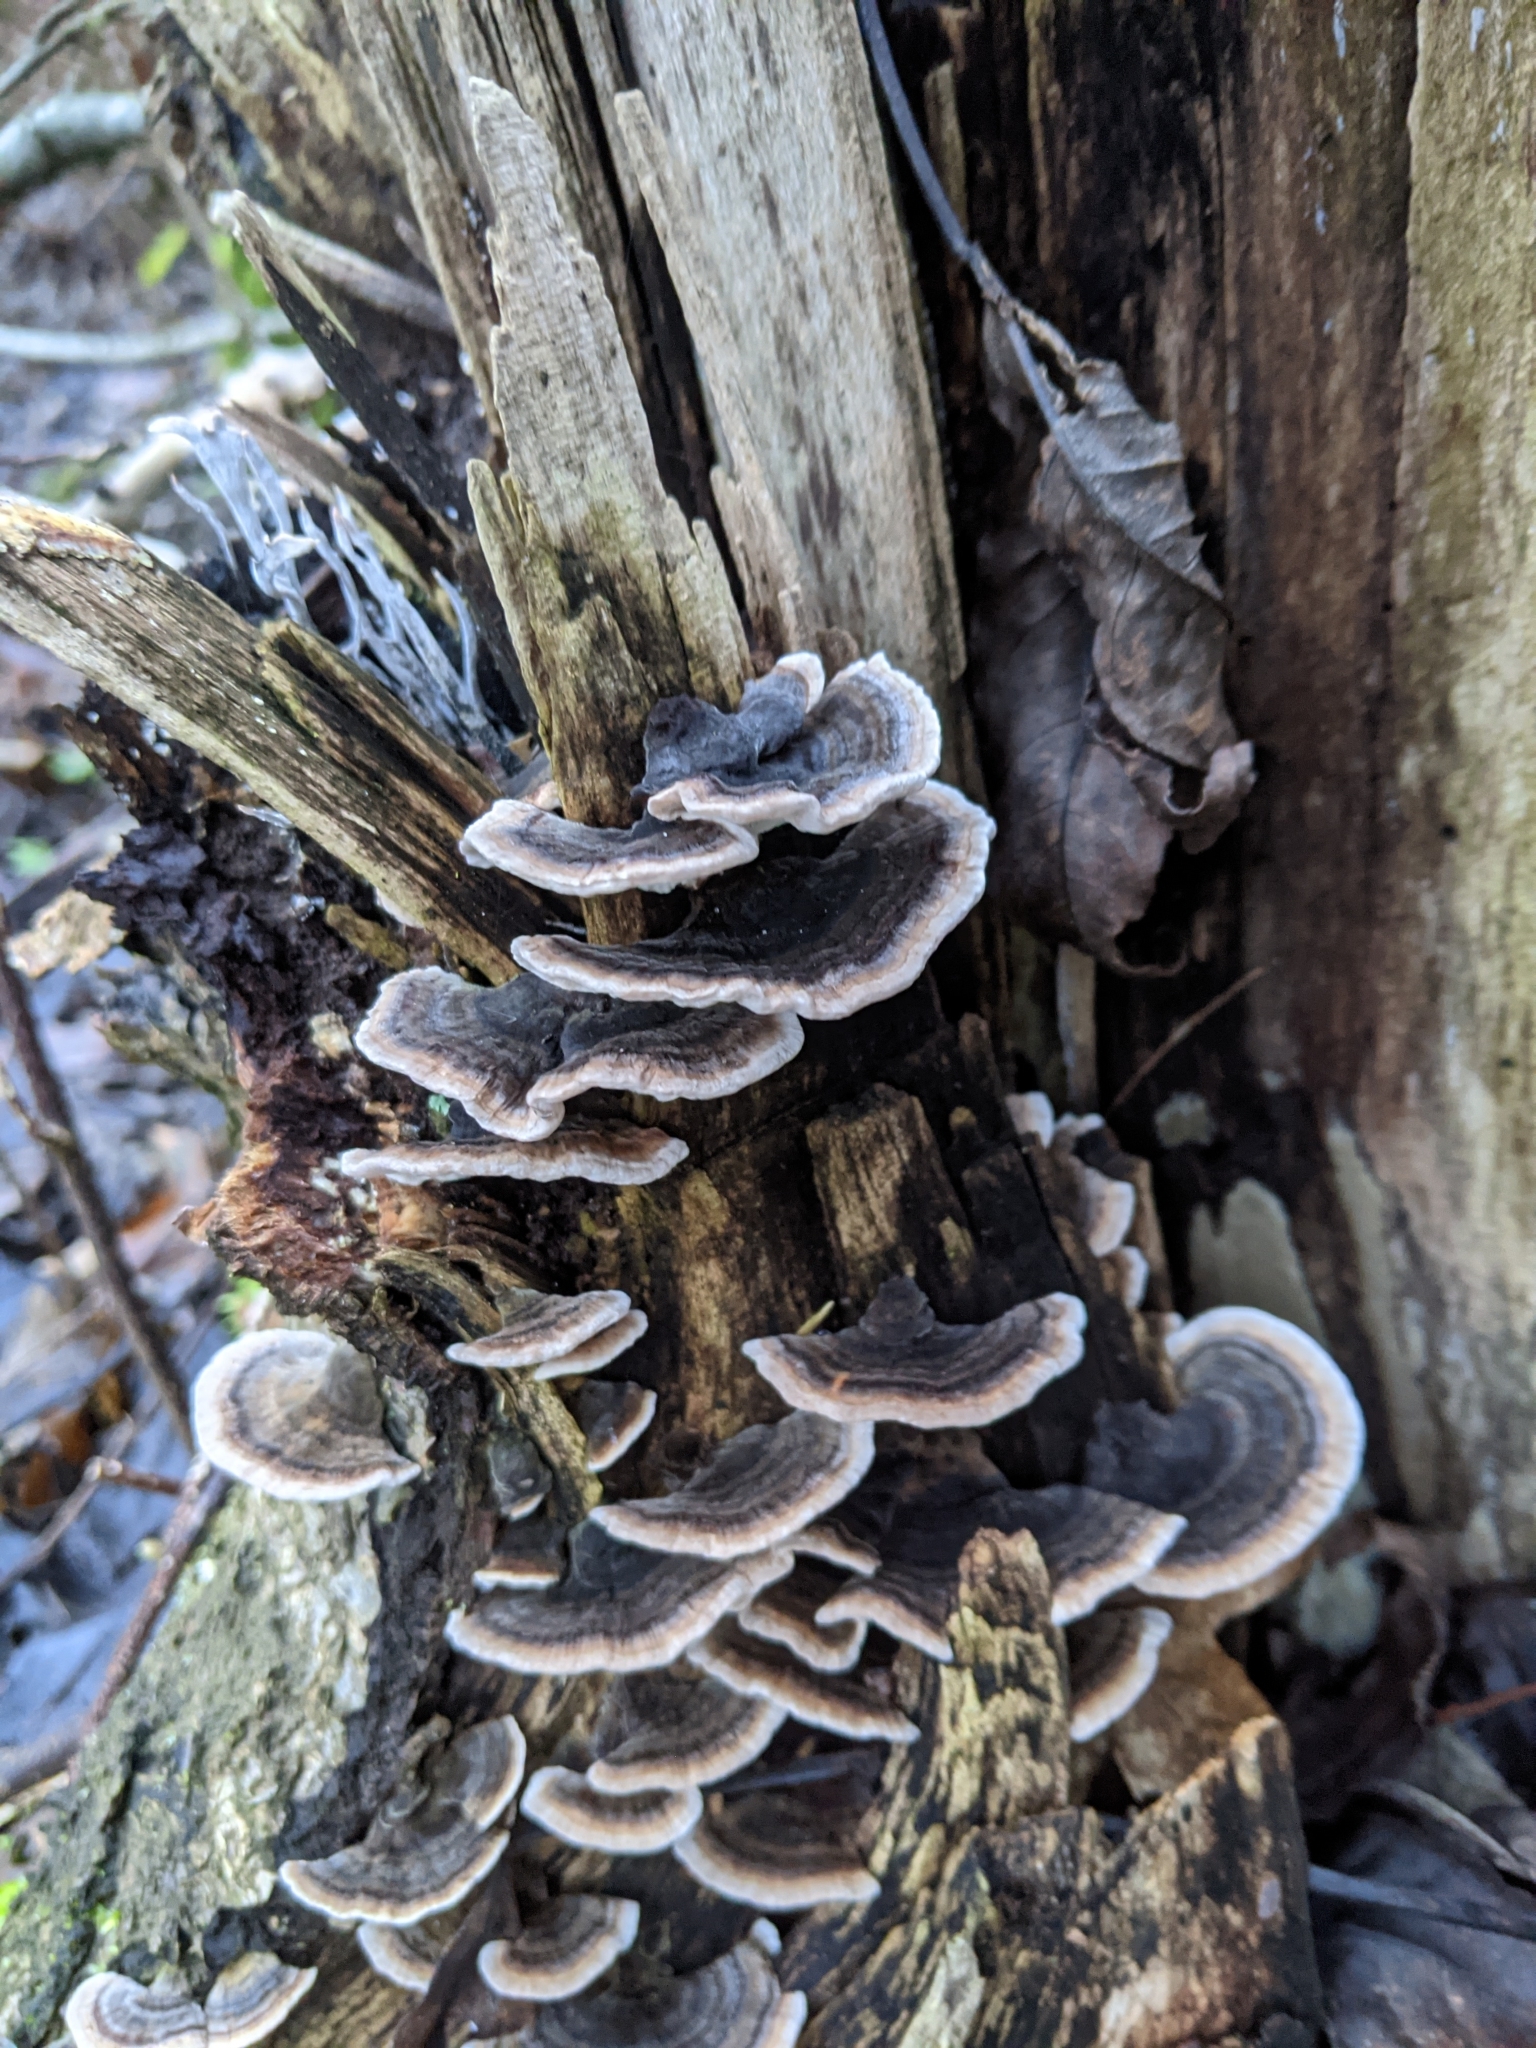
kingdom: Fungi
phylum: Basidiomycota
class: Agaricomycetes
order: Polyporales
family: Polyporaceae
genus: Trametes
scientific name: Trametes versicolor
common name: Turkeytail
